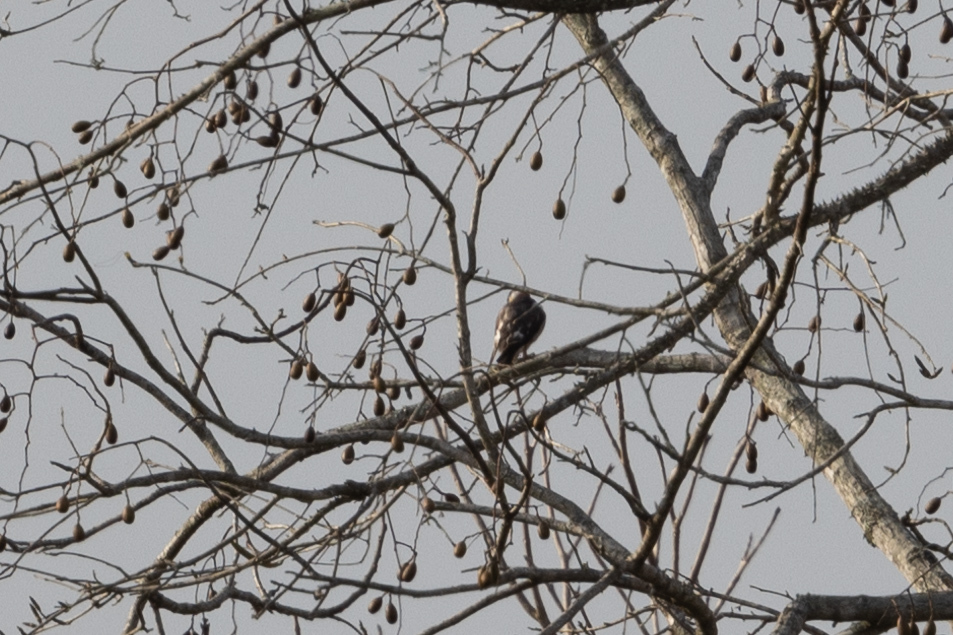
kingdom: Animalia
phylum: Chordata
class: Aves
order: Accipitriformes
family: Accipitridae
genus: Gampsonyx
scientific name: Gampsonyx swainsonii
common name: Pearl kite
